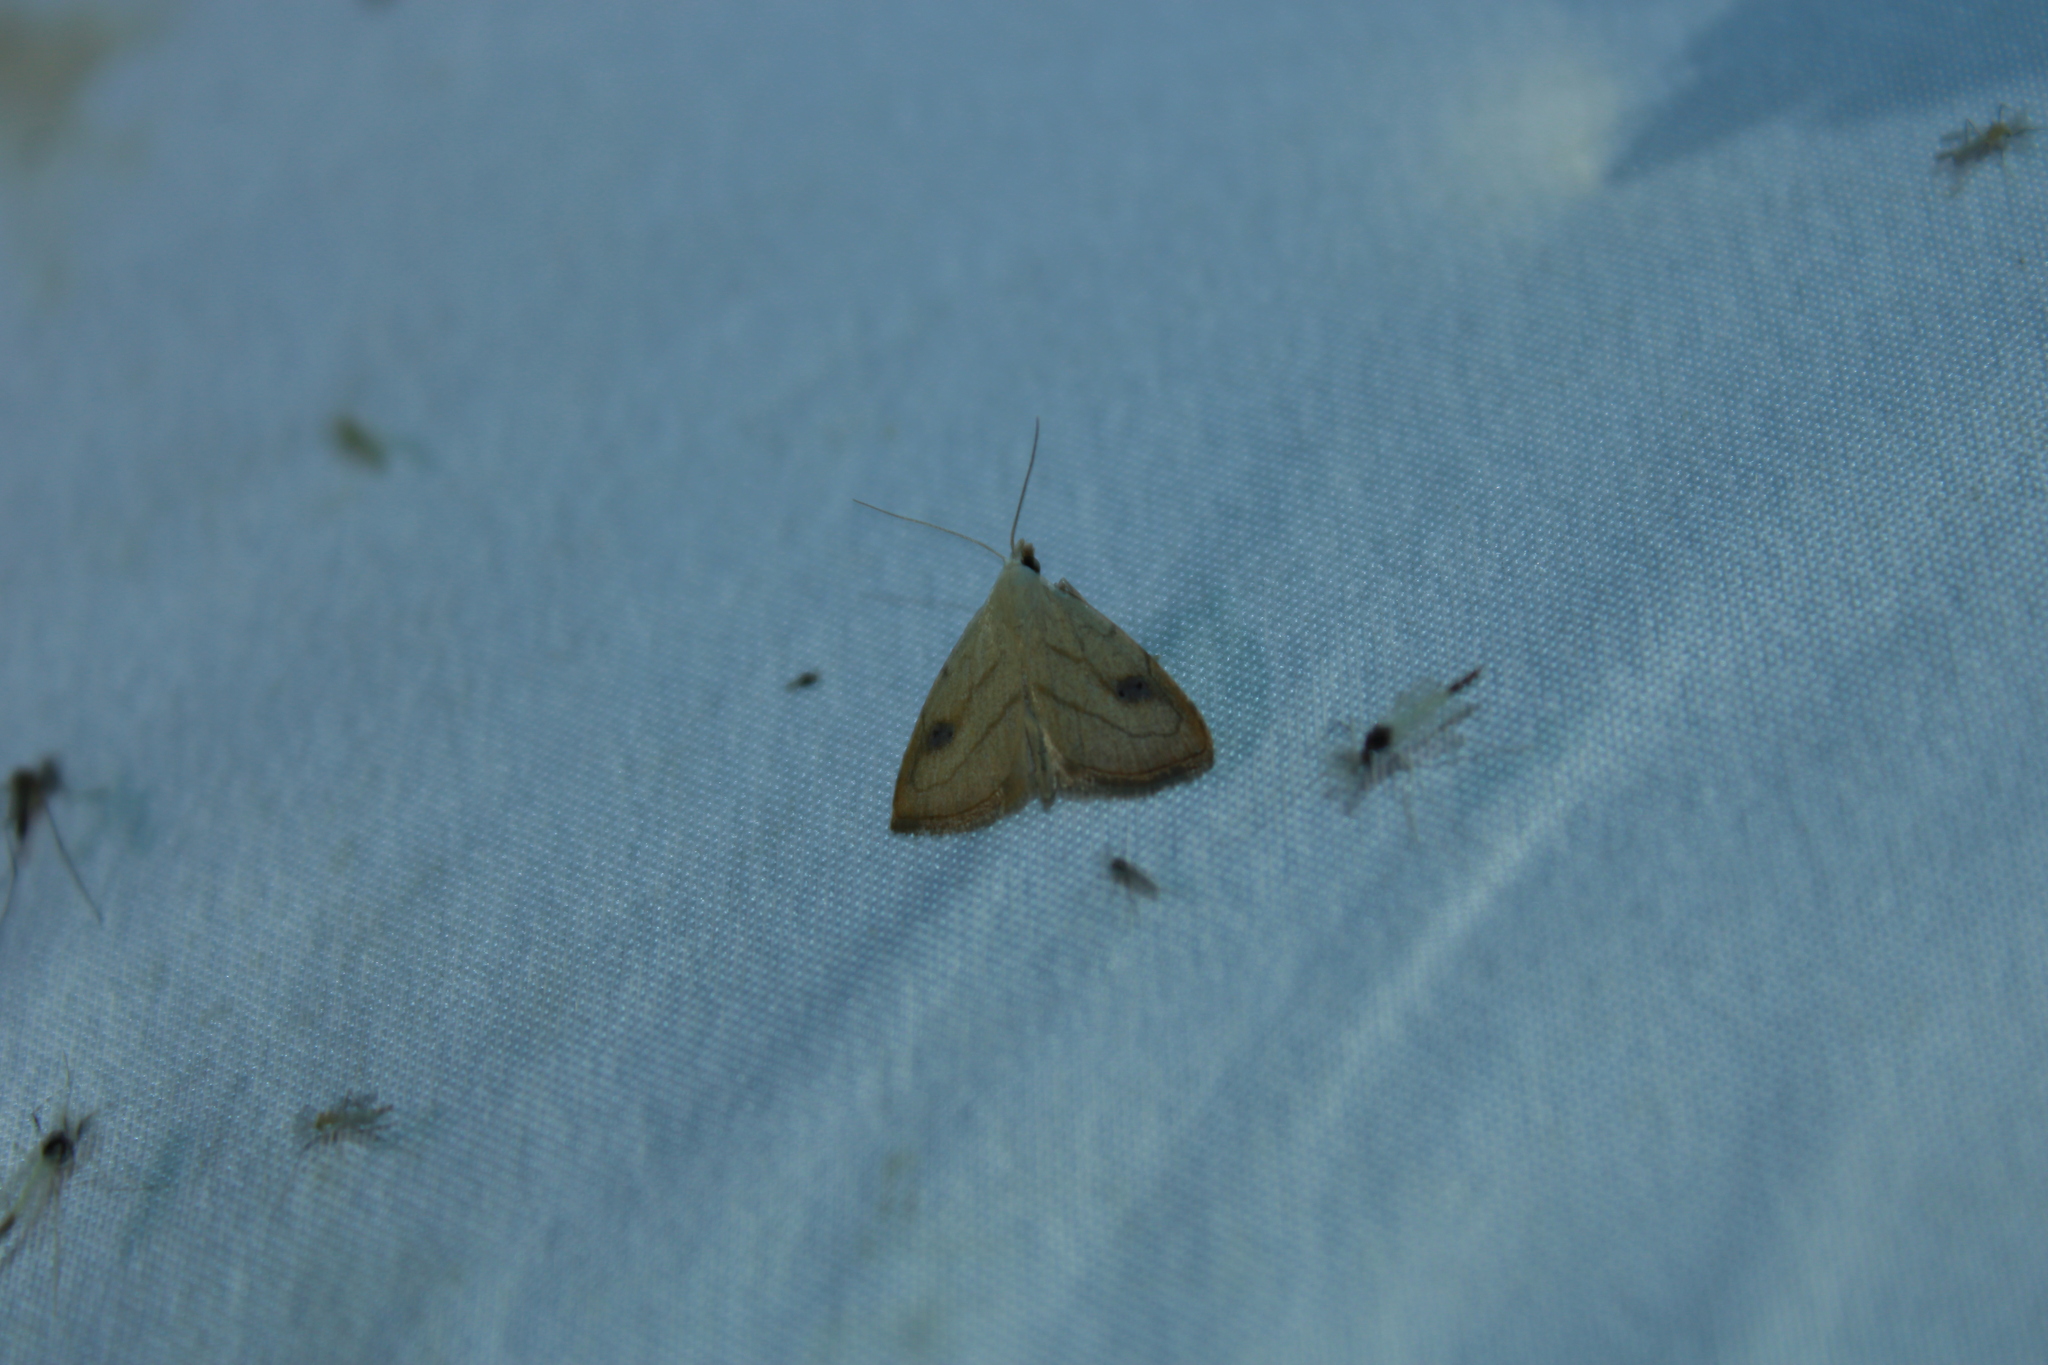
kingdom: Animalia
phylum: Arthropoda
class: Insecta
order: Lepidoptera
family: Erebidae
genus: Rivula
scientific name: Rivula propinqualis
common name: Spotted grass moth
